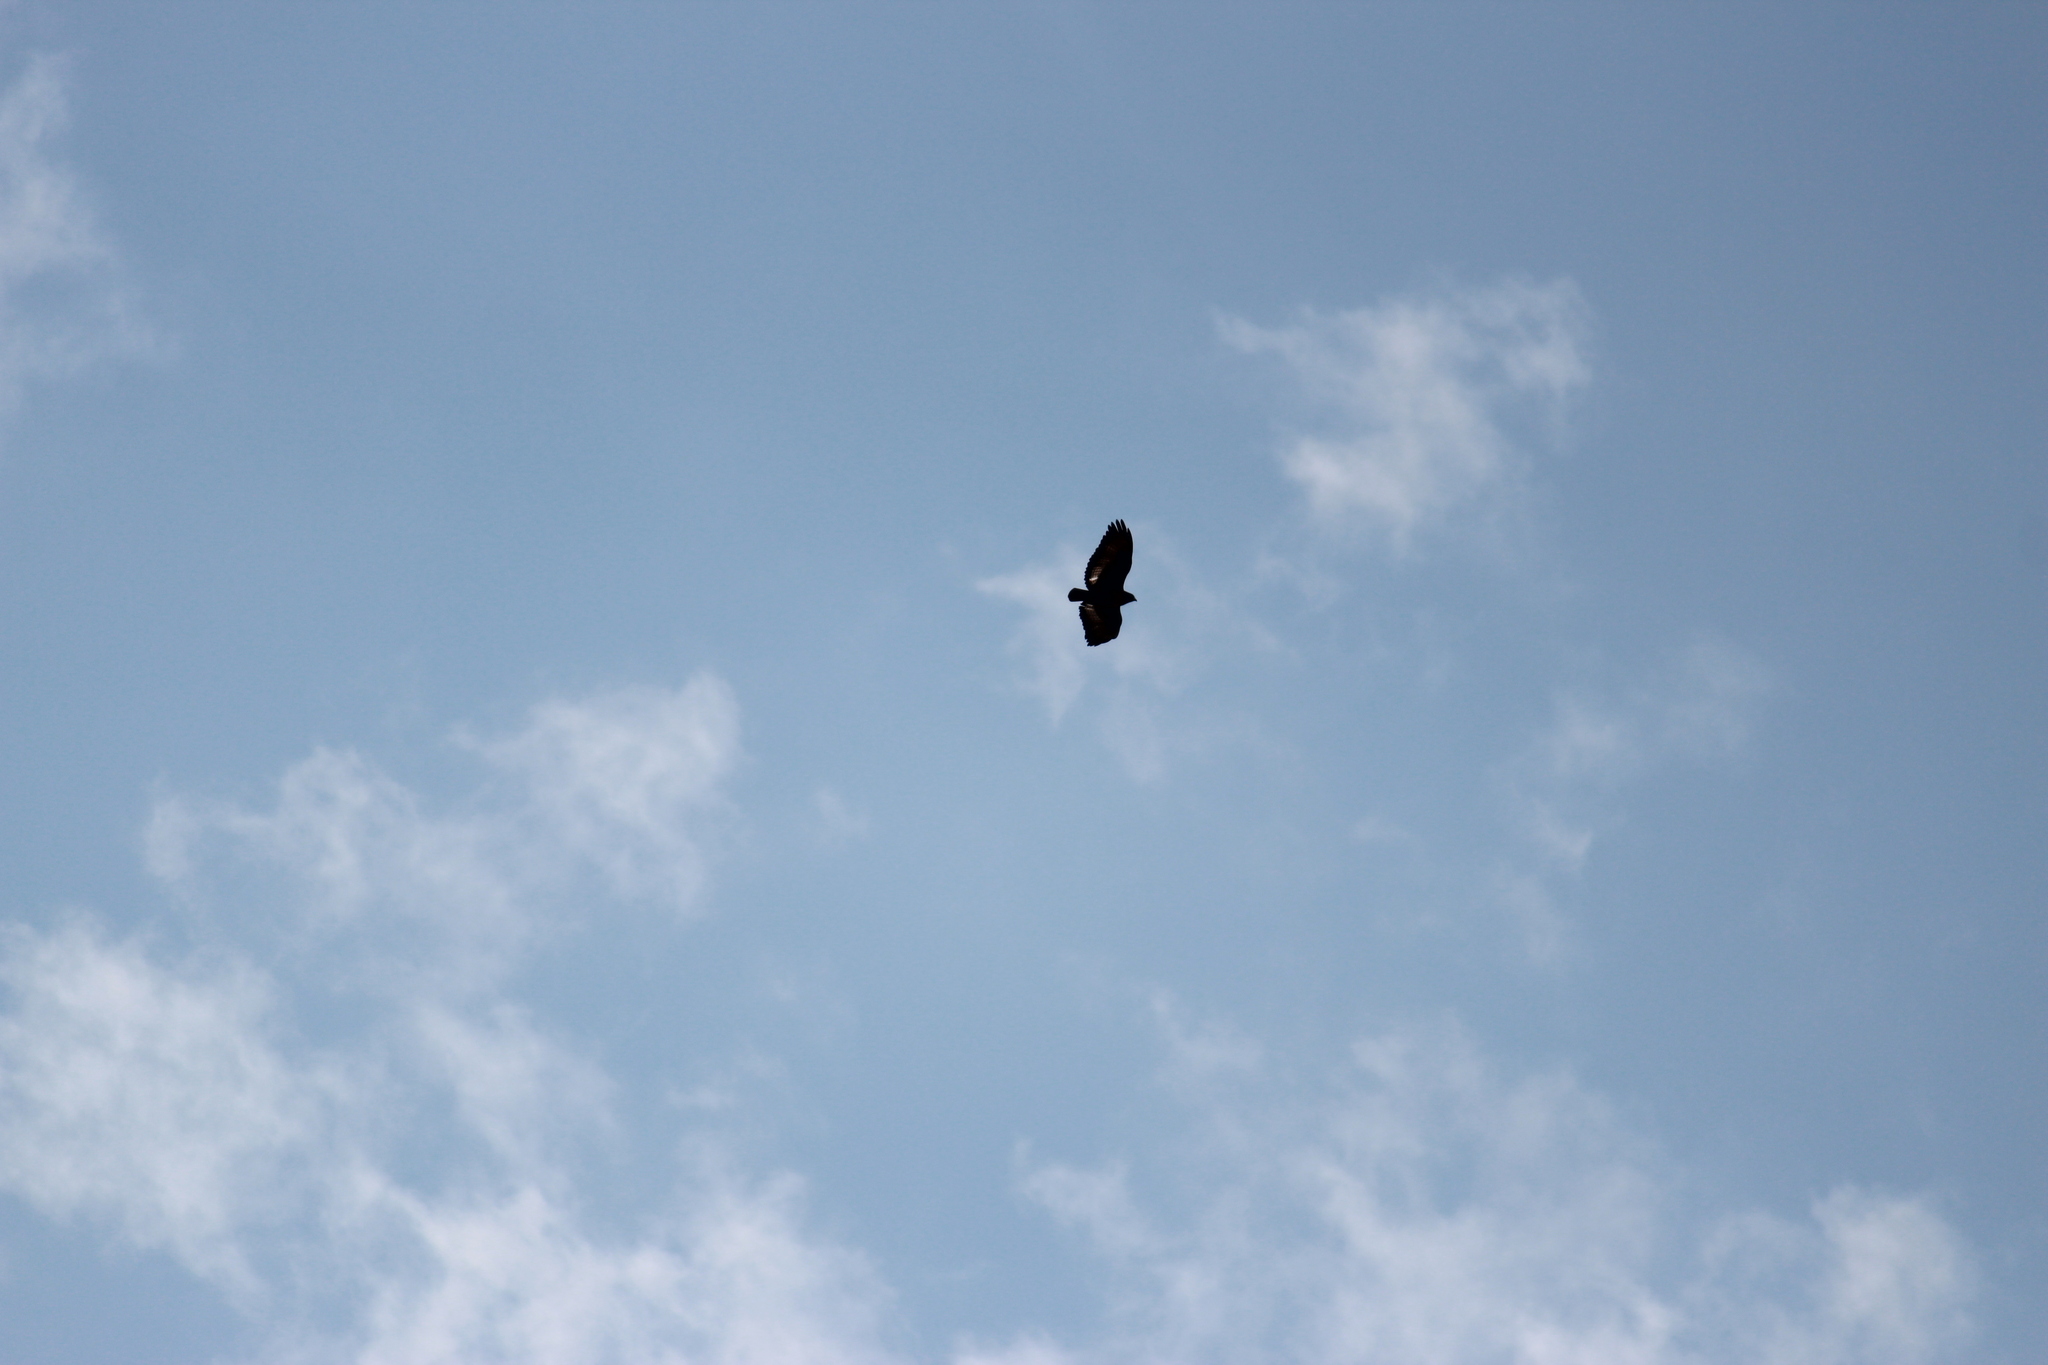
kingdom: Animalia
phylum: Chordata
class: Aves
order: Accipitriformes
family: Accipitridae
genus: Buteo
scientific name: Buteo rufofuscus
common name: Jackal buzzard
